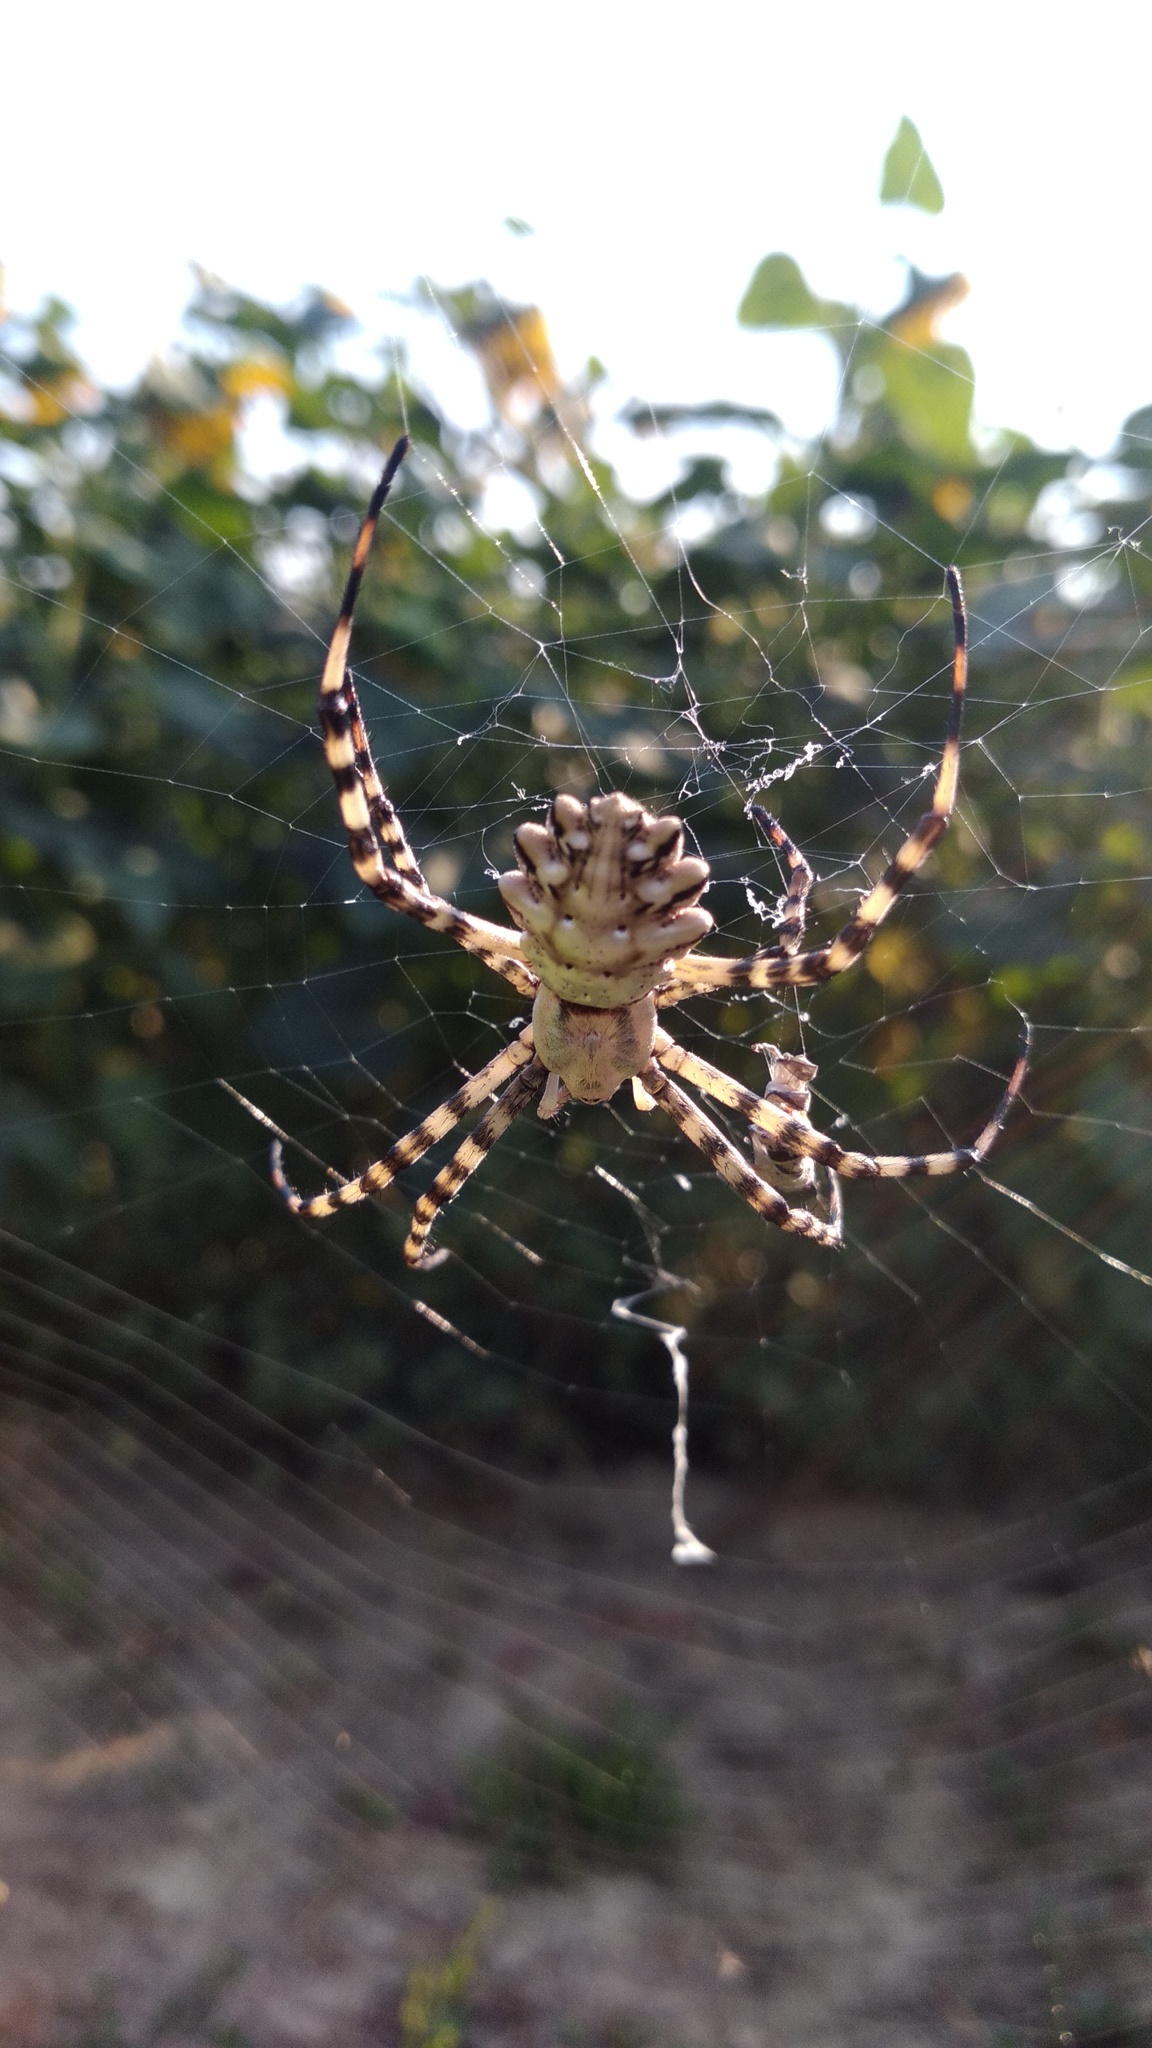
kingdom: Animalia
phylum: Arthropoda
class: Arachnida
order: Araneae
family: Araneidae
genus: Argiope
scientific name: Argiope lobata
